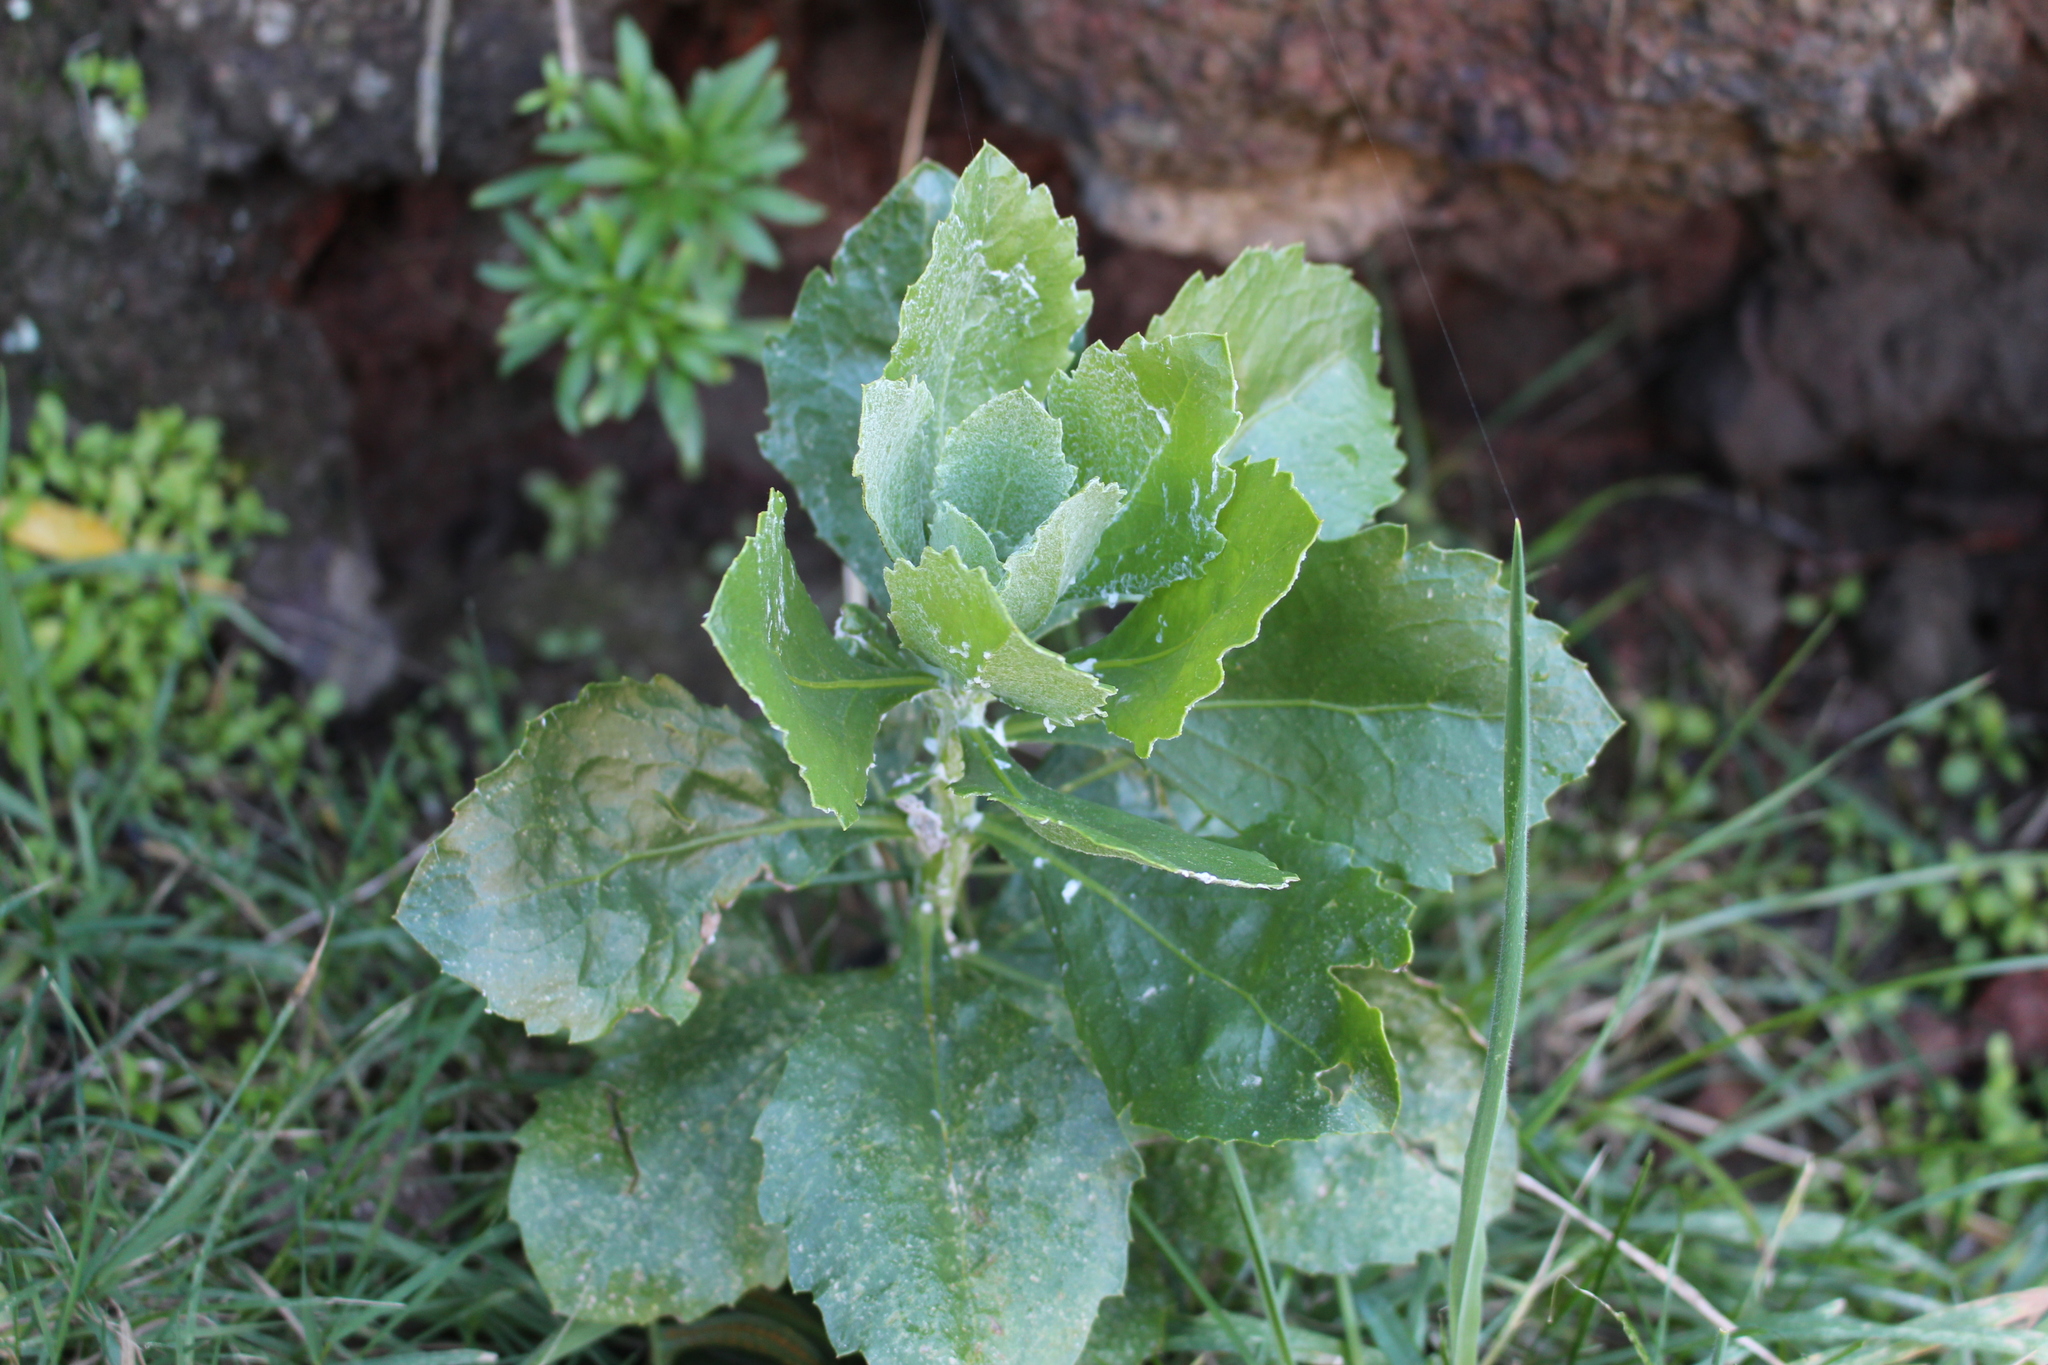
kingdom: Plantae
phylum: Tracheophyta
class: Magnoliopsida
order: Asterales
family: Asteraceae
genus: Osteospermum
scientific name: Osteospermum moniliferum
